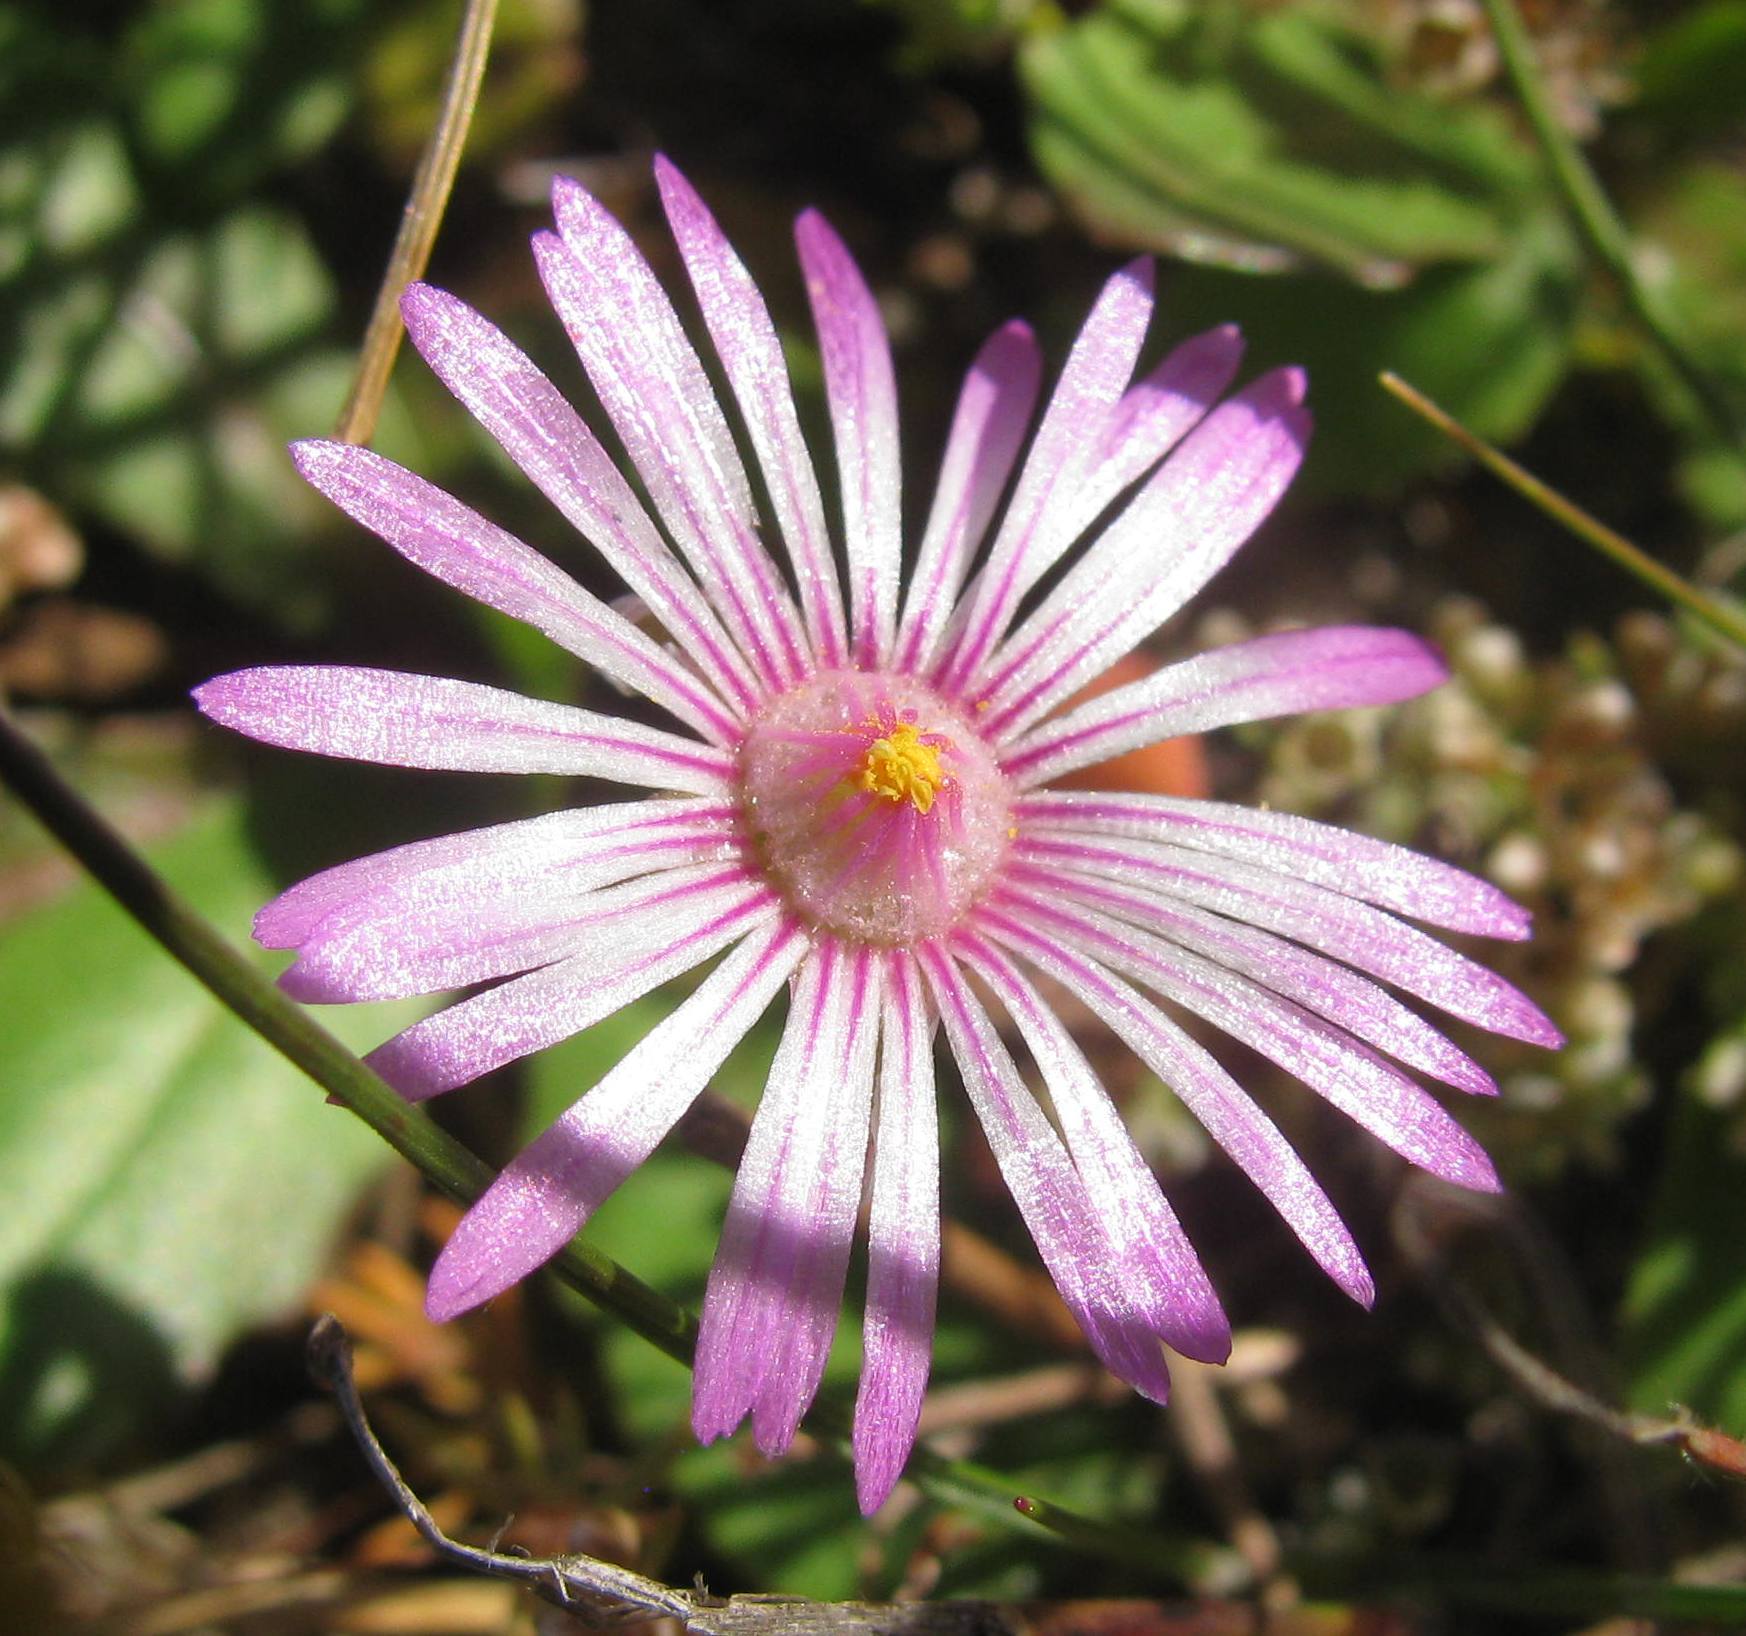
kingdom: Plantae
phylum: Tracheophyta
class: Magnoliopsida
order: Caryophyllales
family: Aizoaceae
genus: Cleretum
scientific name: Cleretum bellidiforme
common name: Livingstone daisy
